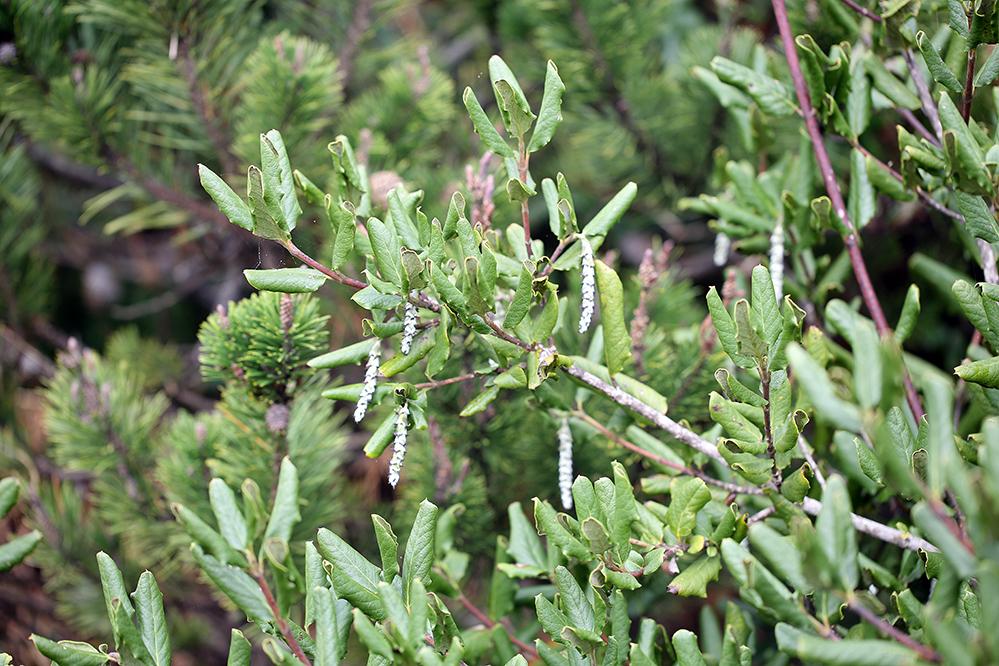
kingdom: Plantae
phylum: Tracheophyta
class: Magnoliopsida
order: Garryales
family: Garryaceae
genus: Garrya
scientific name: Garrya elliptica
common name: Silk-tassel
